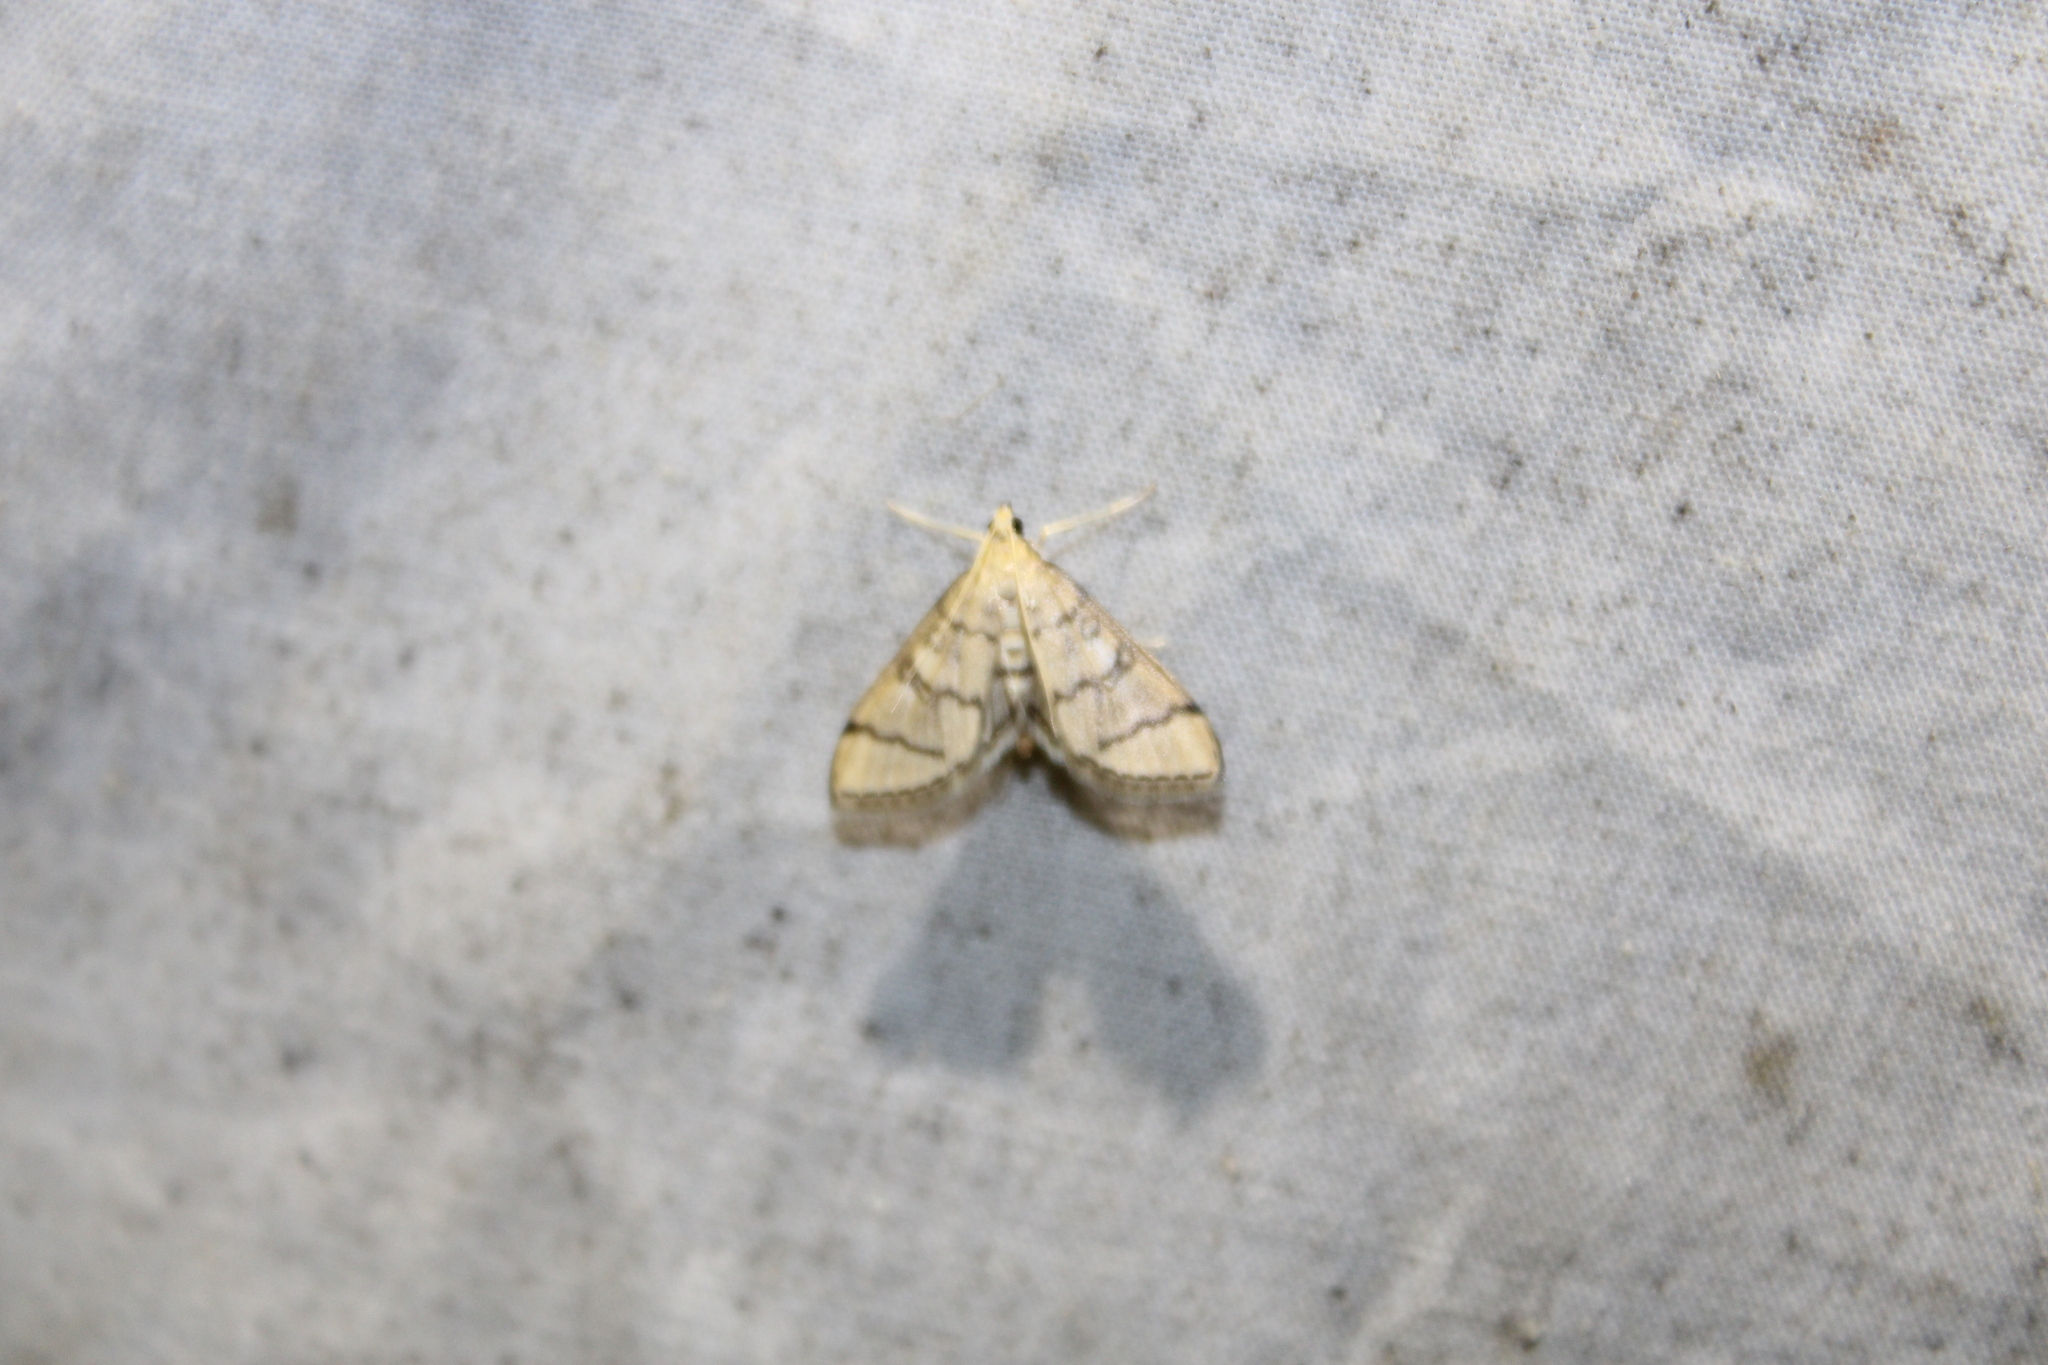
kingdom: Animalia
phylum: Arthropoda
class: Insecta
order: Lepidoptera
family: Crambidae
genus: Lamprosema
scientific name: Lamprosema Blepharomastix ranalis
